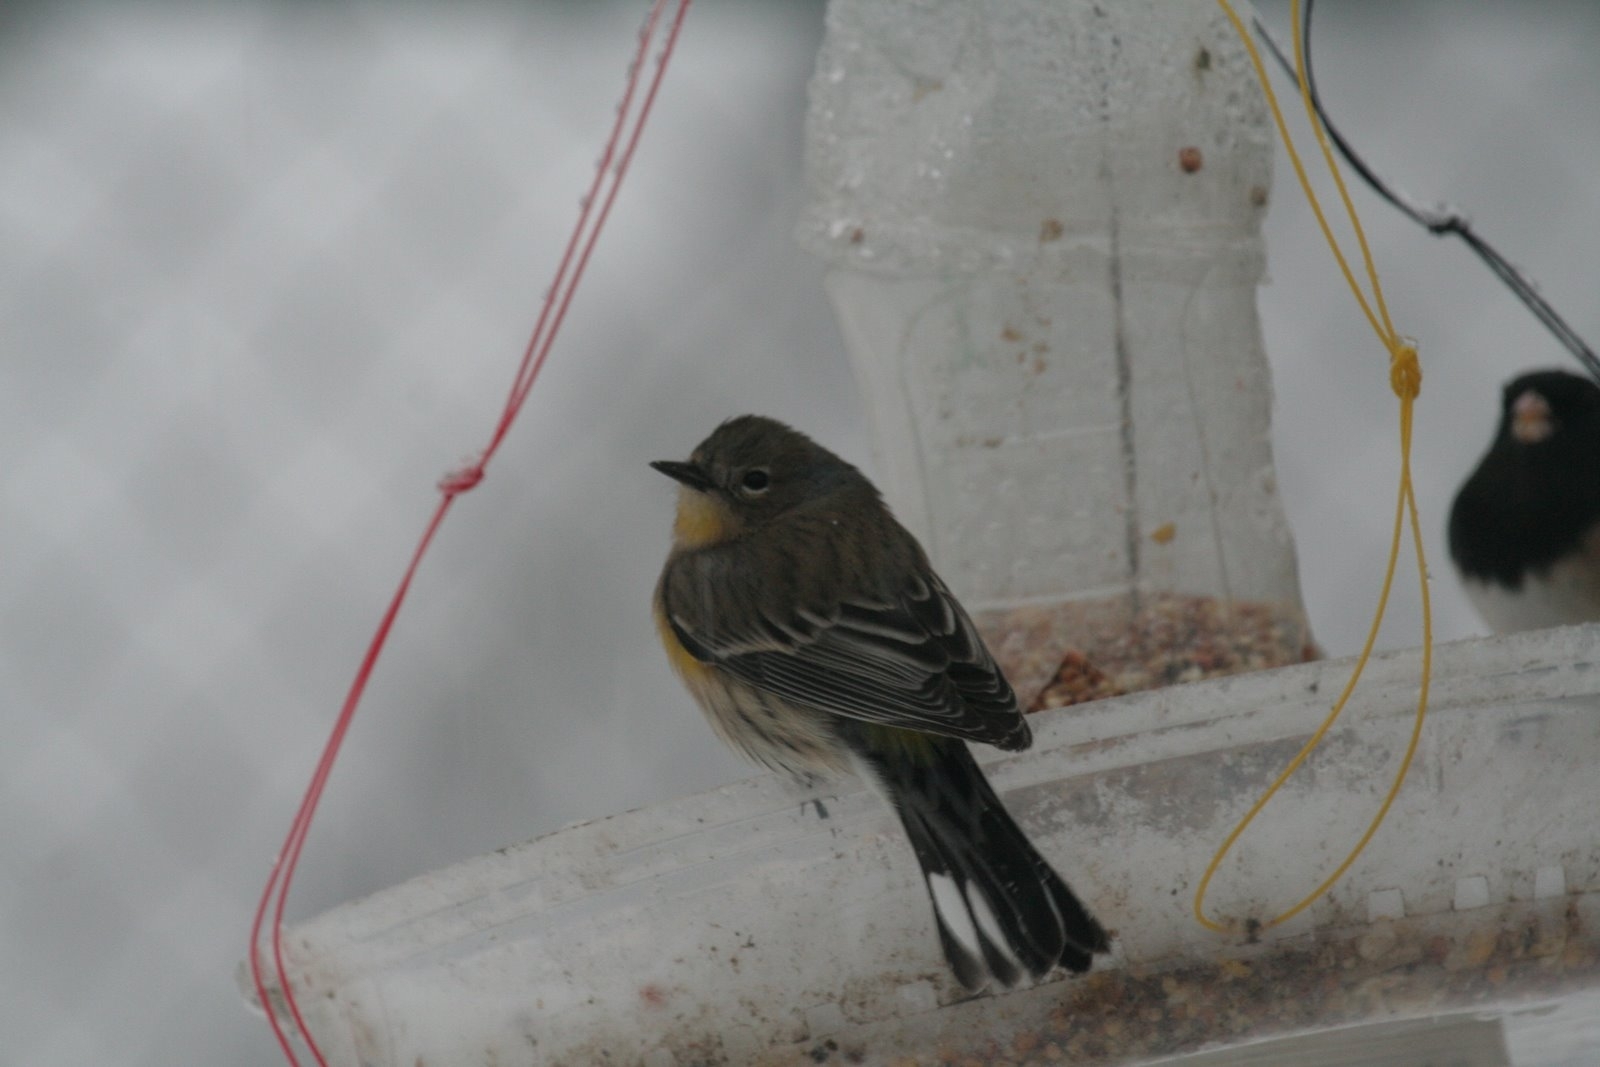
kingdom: Animalia
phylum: Chordata
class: Aves
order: Passeriformes
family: Parulidae
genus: Setophaga
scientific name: Setophaga coronata
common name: Myrtle warbler
